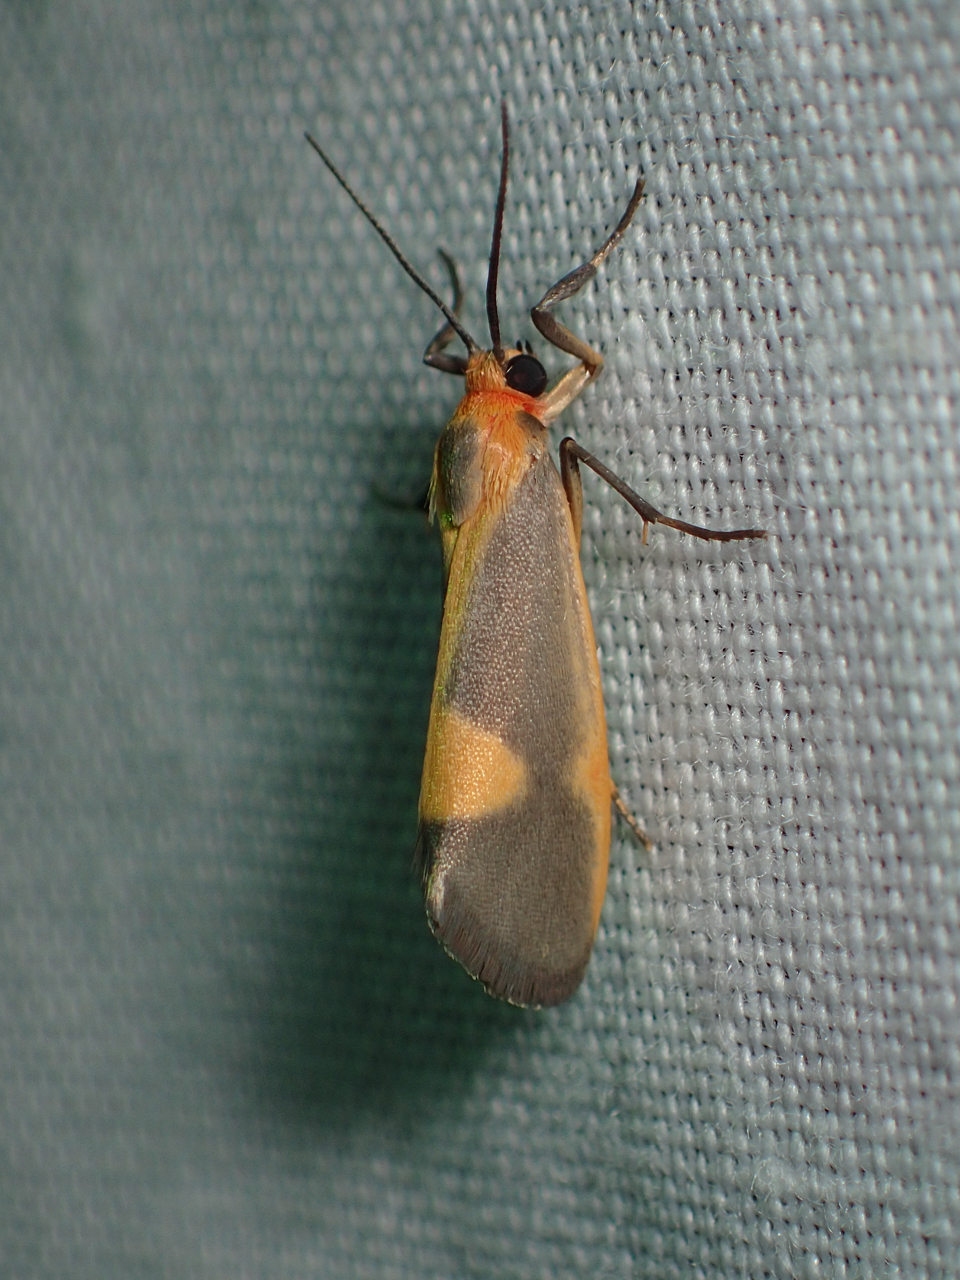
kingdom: Animalia
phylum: Arthropoda
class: Insecta
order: Lepidoptera
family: Erebidae
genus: Cisthene
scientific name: Cisthene plumbea
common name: Lead colored lichen moth
